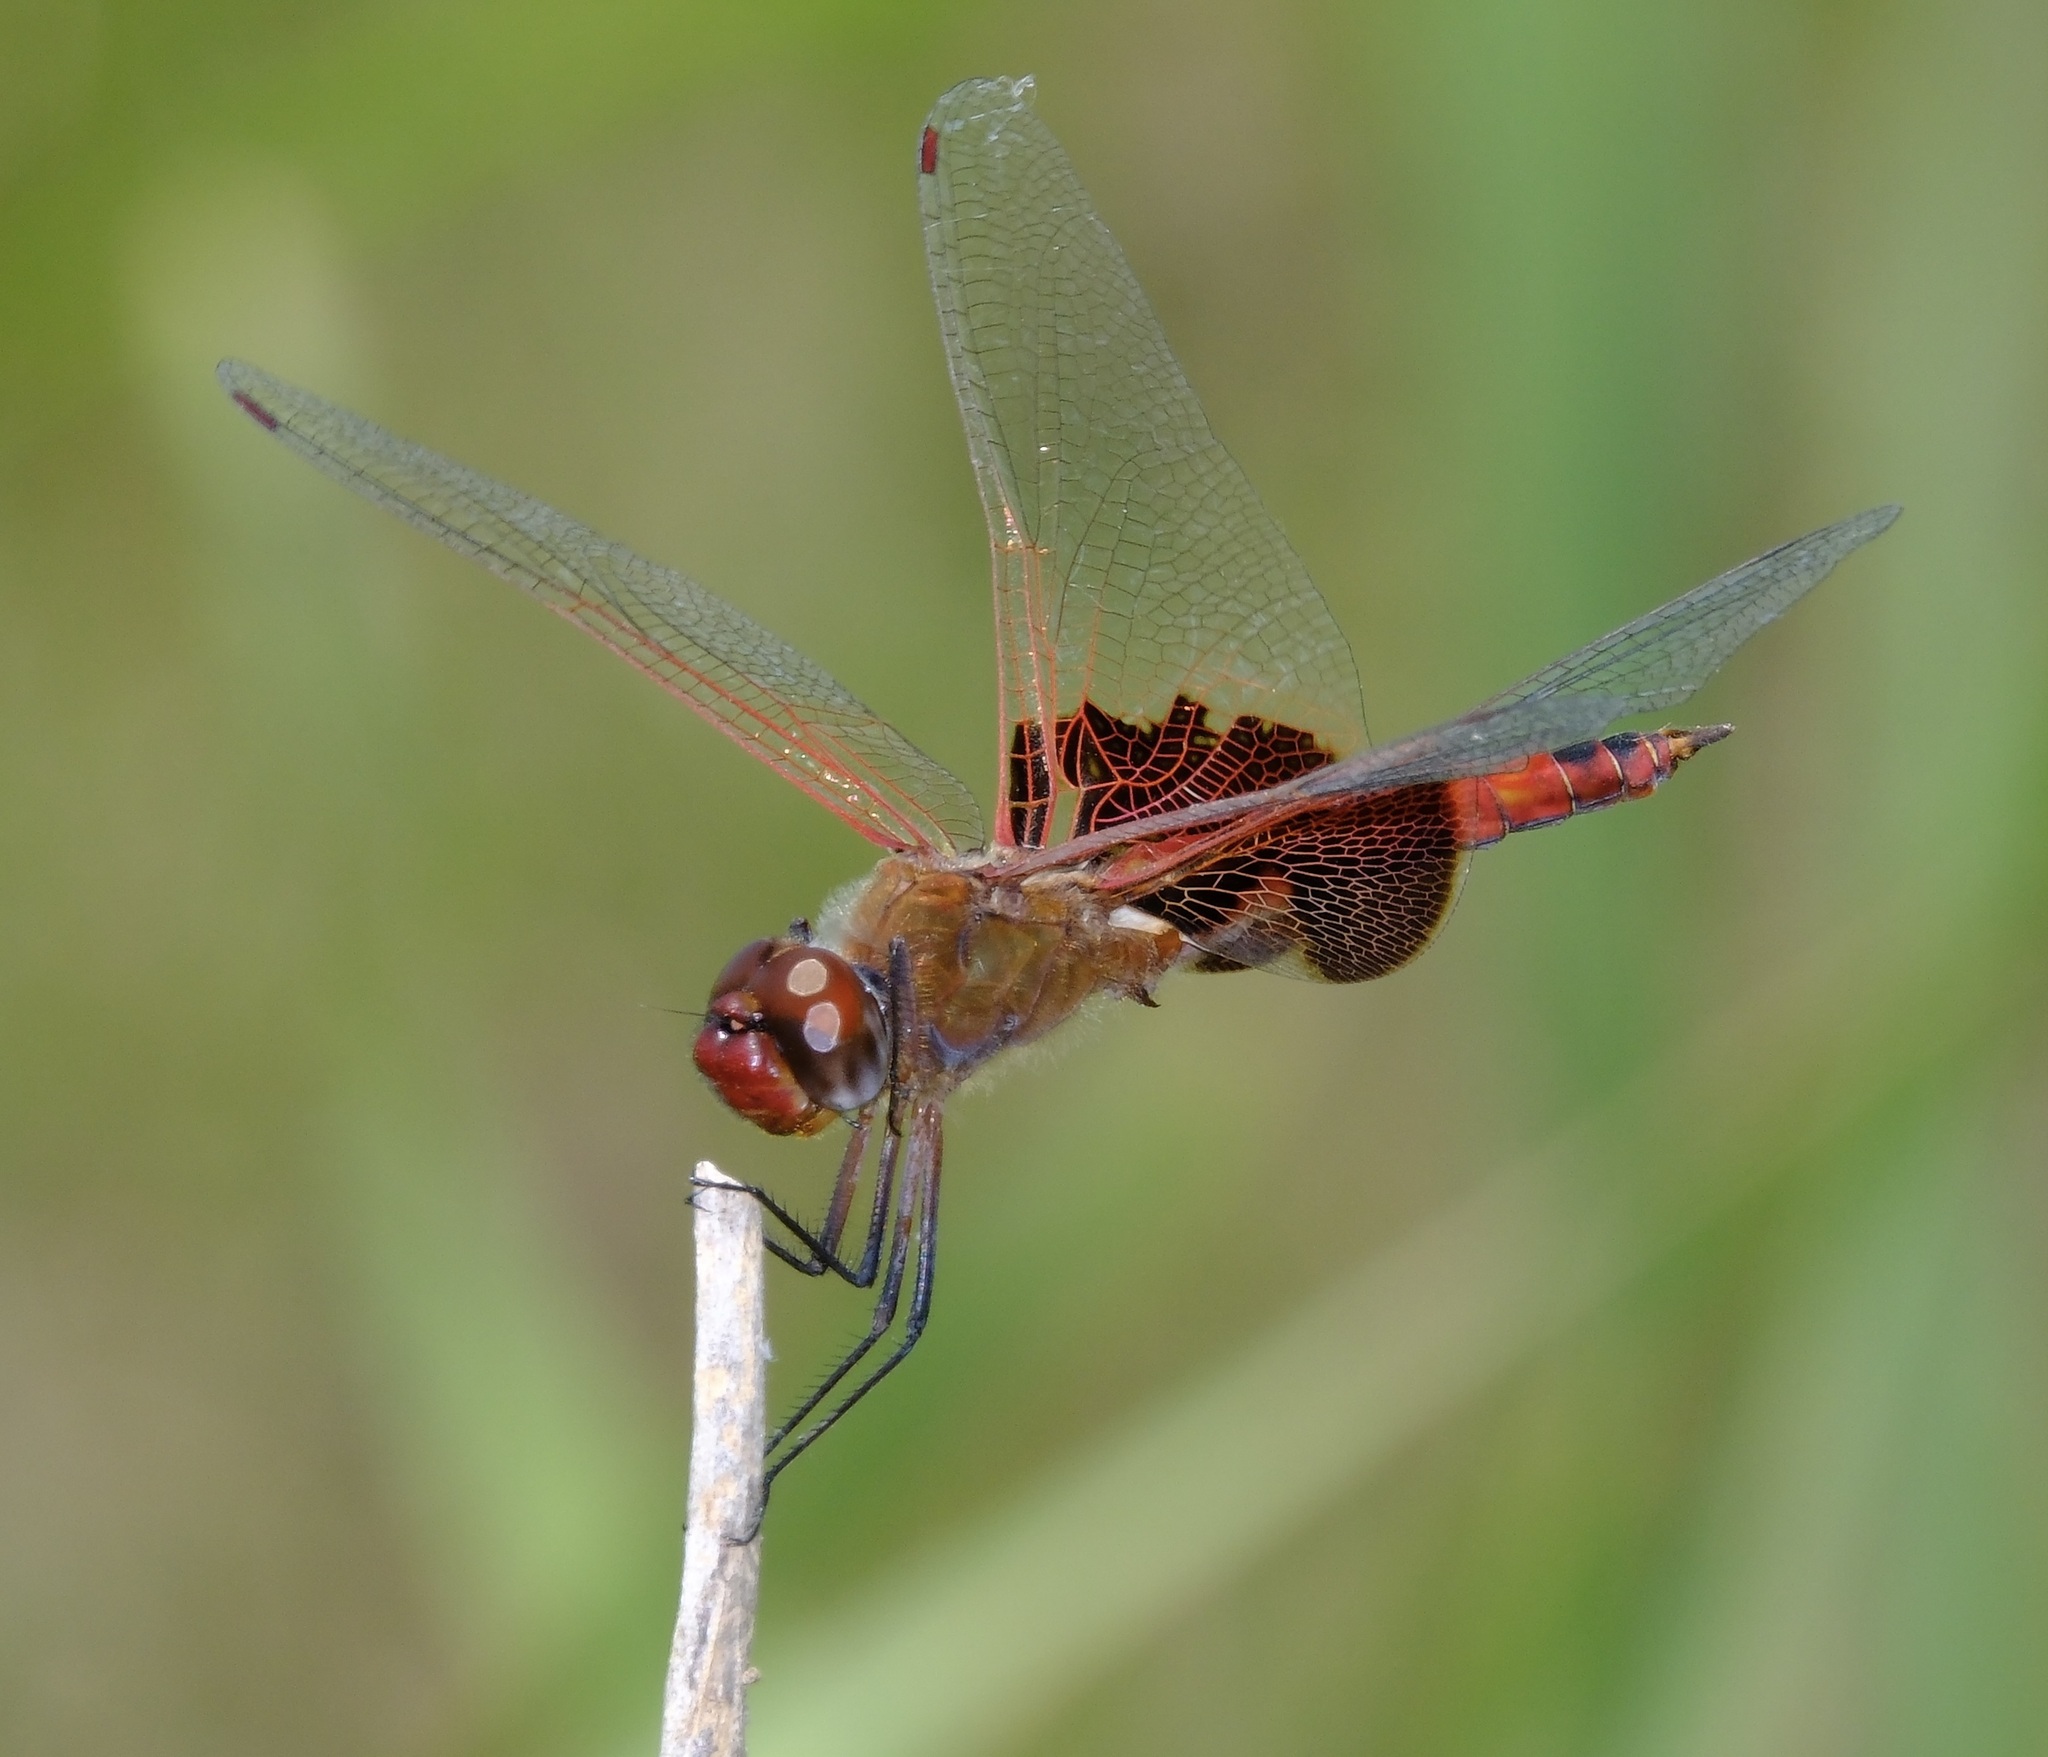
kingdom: Animalia
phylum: Arthropoda
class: Insecta
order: Odonata
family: Libellulidae
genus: Tramea
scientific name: Tramea onusta
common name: Red saddlebags
